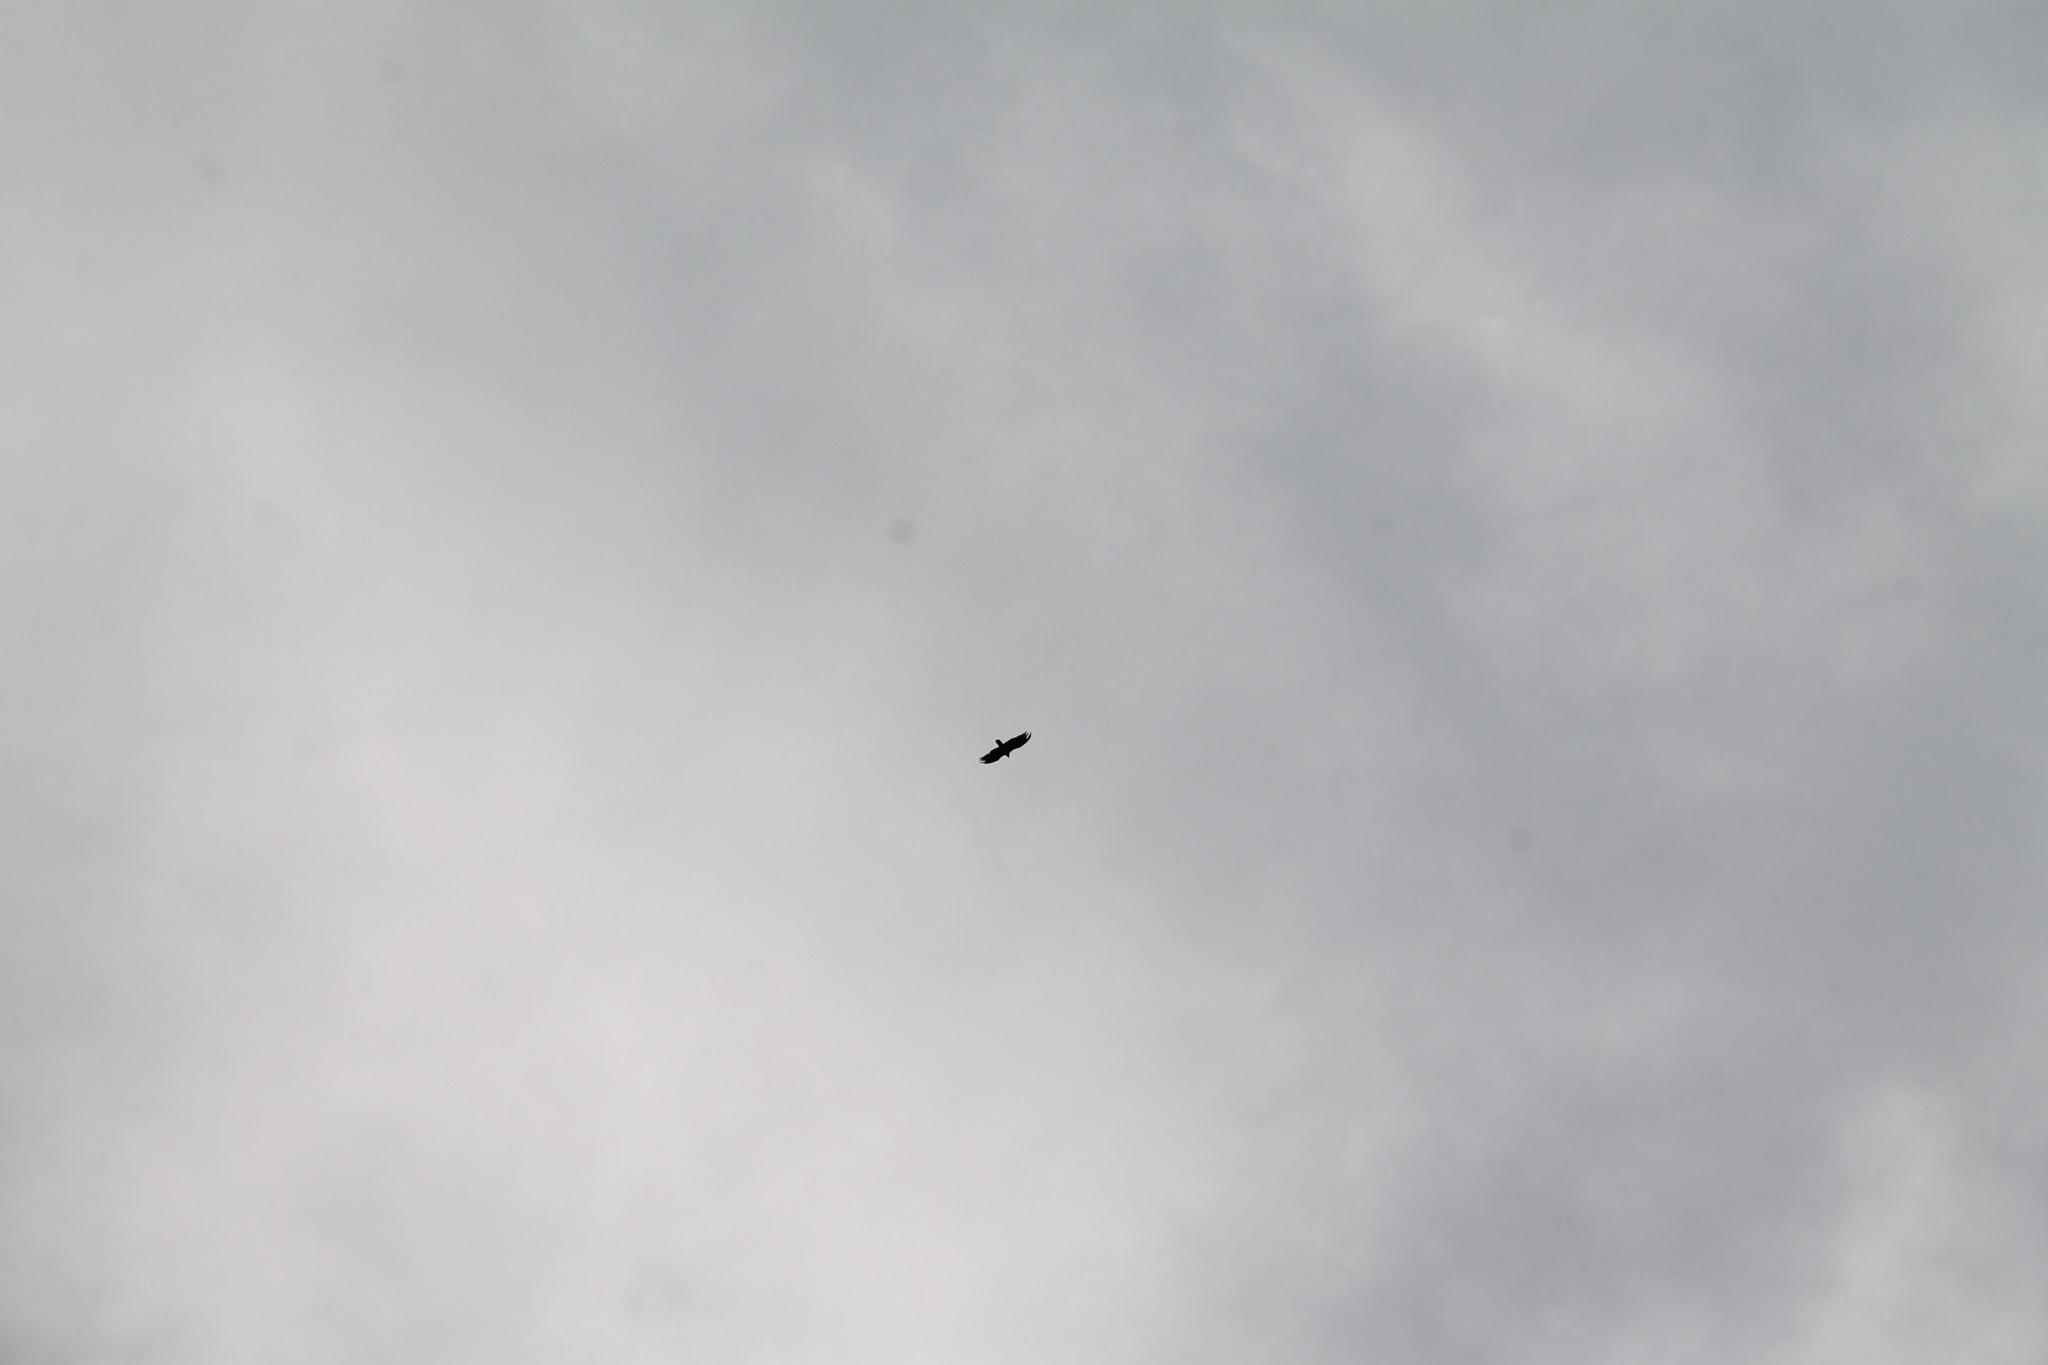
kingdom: Animalia
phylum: Chordata
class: Aves
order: Accipitriformes
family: Cathartidae
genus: Cathartes
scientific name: Cathartes aura
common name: Turkey vulture
